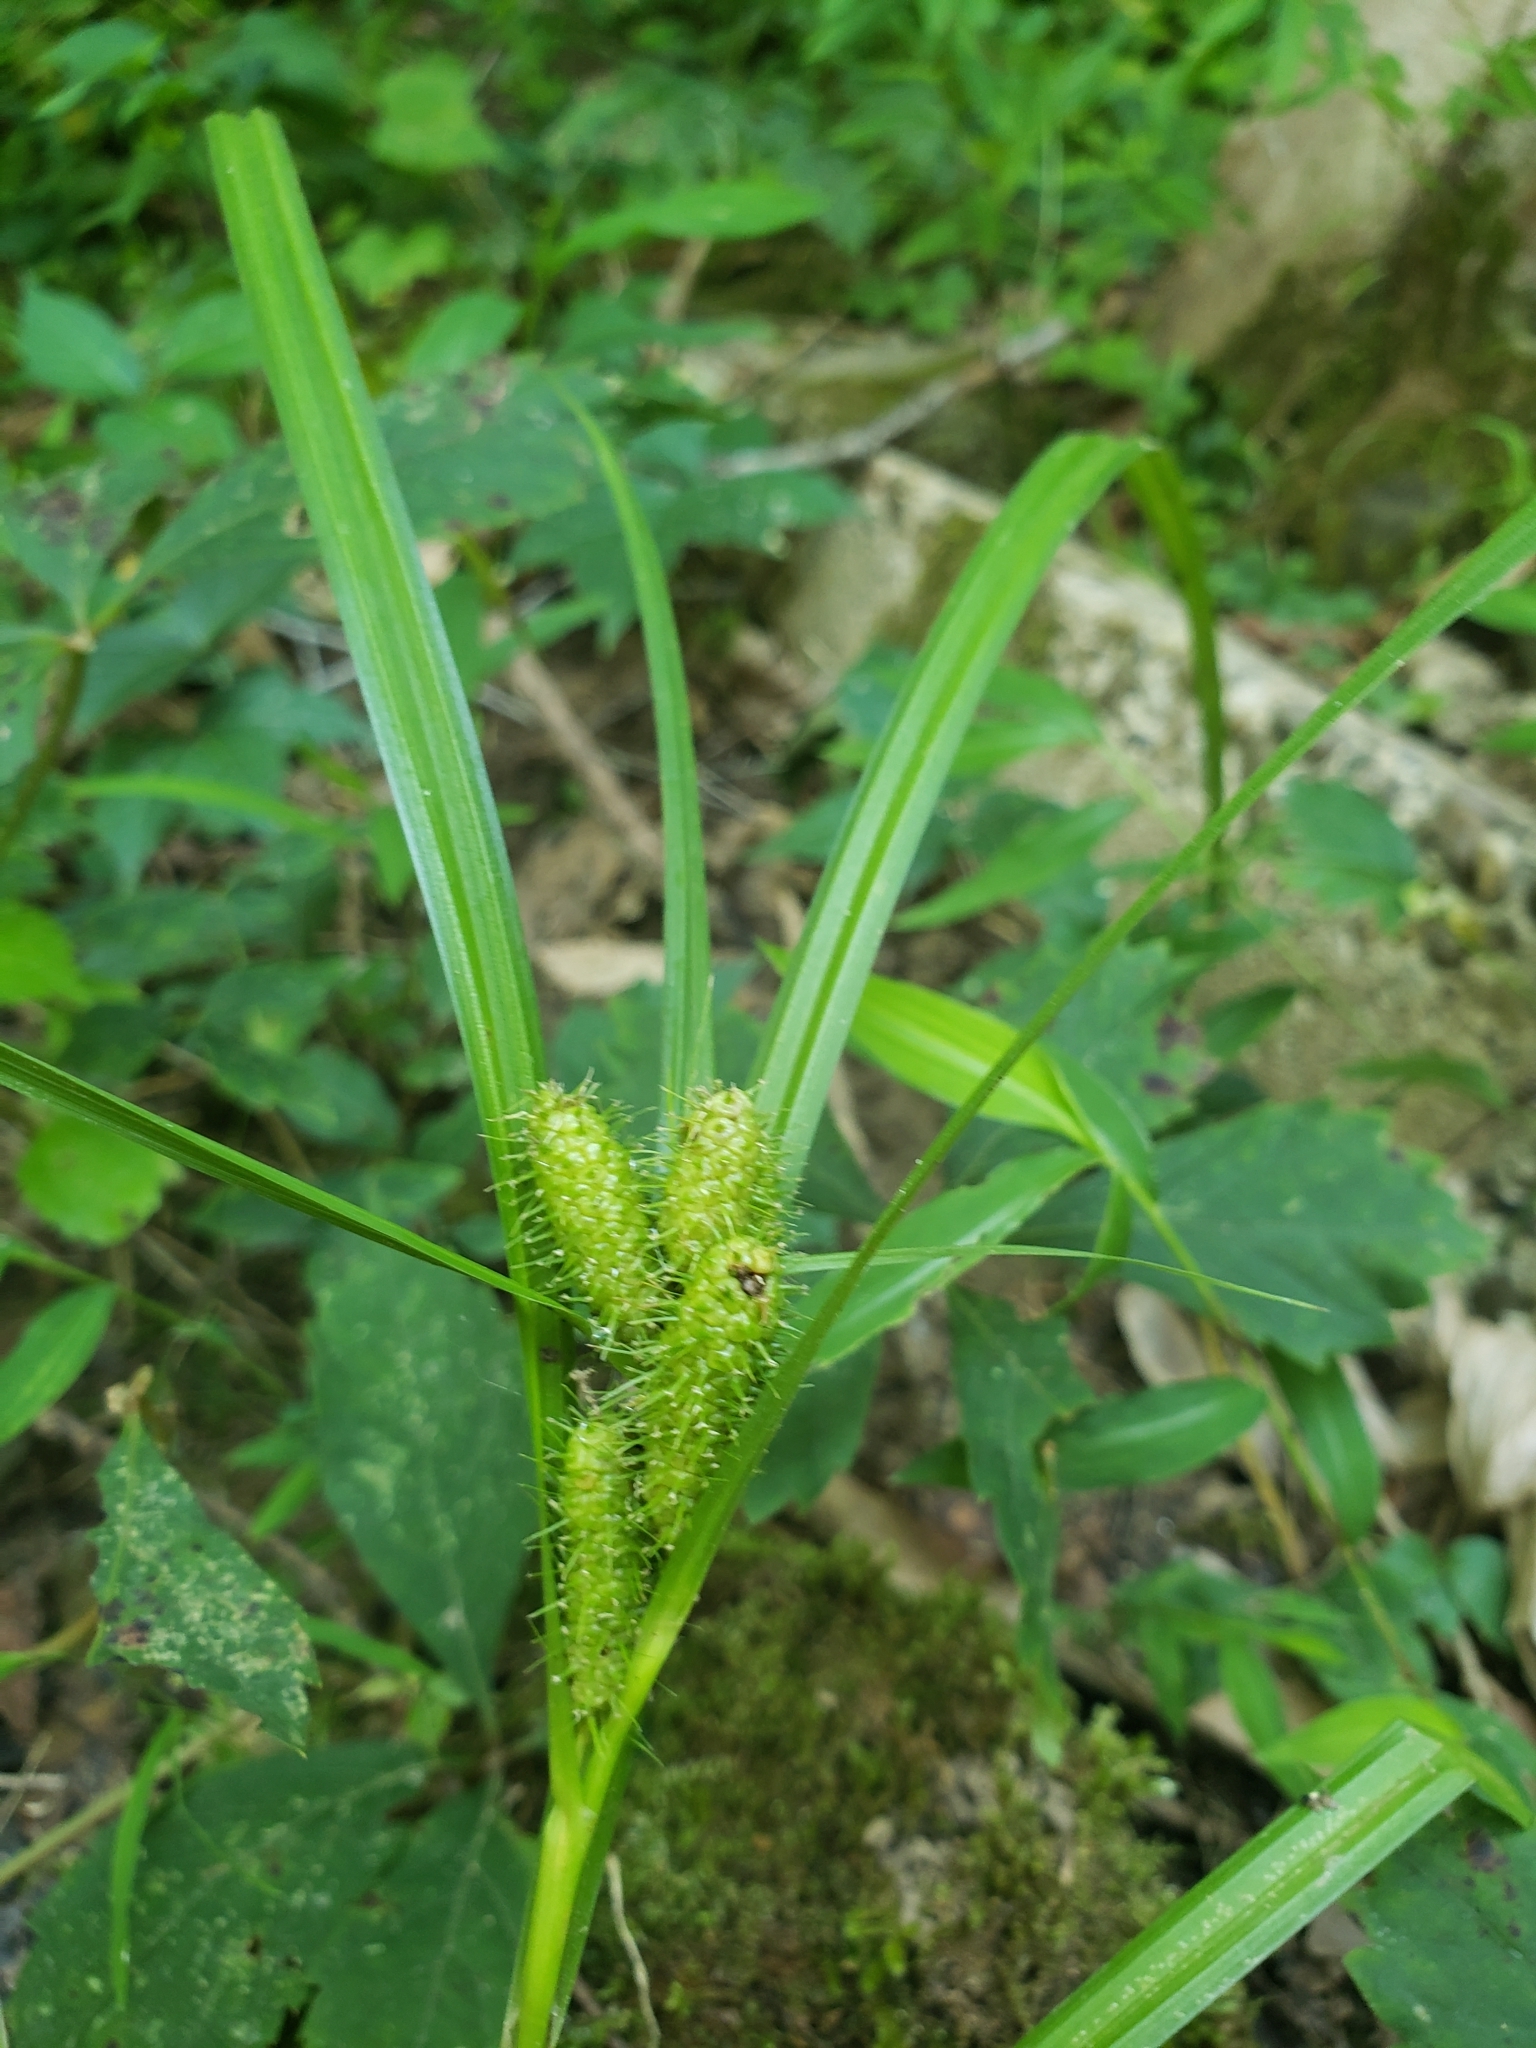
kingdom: Plantae
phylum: Tracheophyta
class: Liliopsida
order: Poales
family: Cyperaceae
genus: Carex
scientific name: Carex frankii
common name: Frank's sedge
